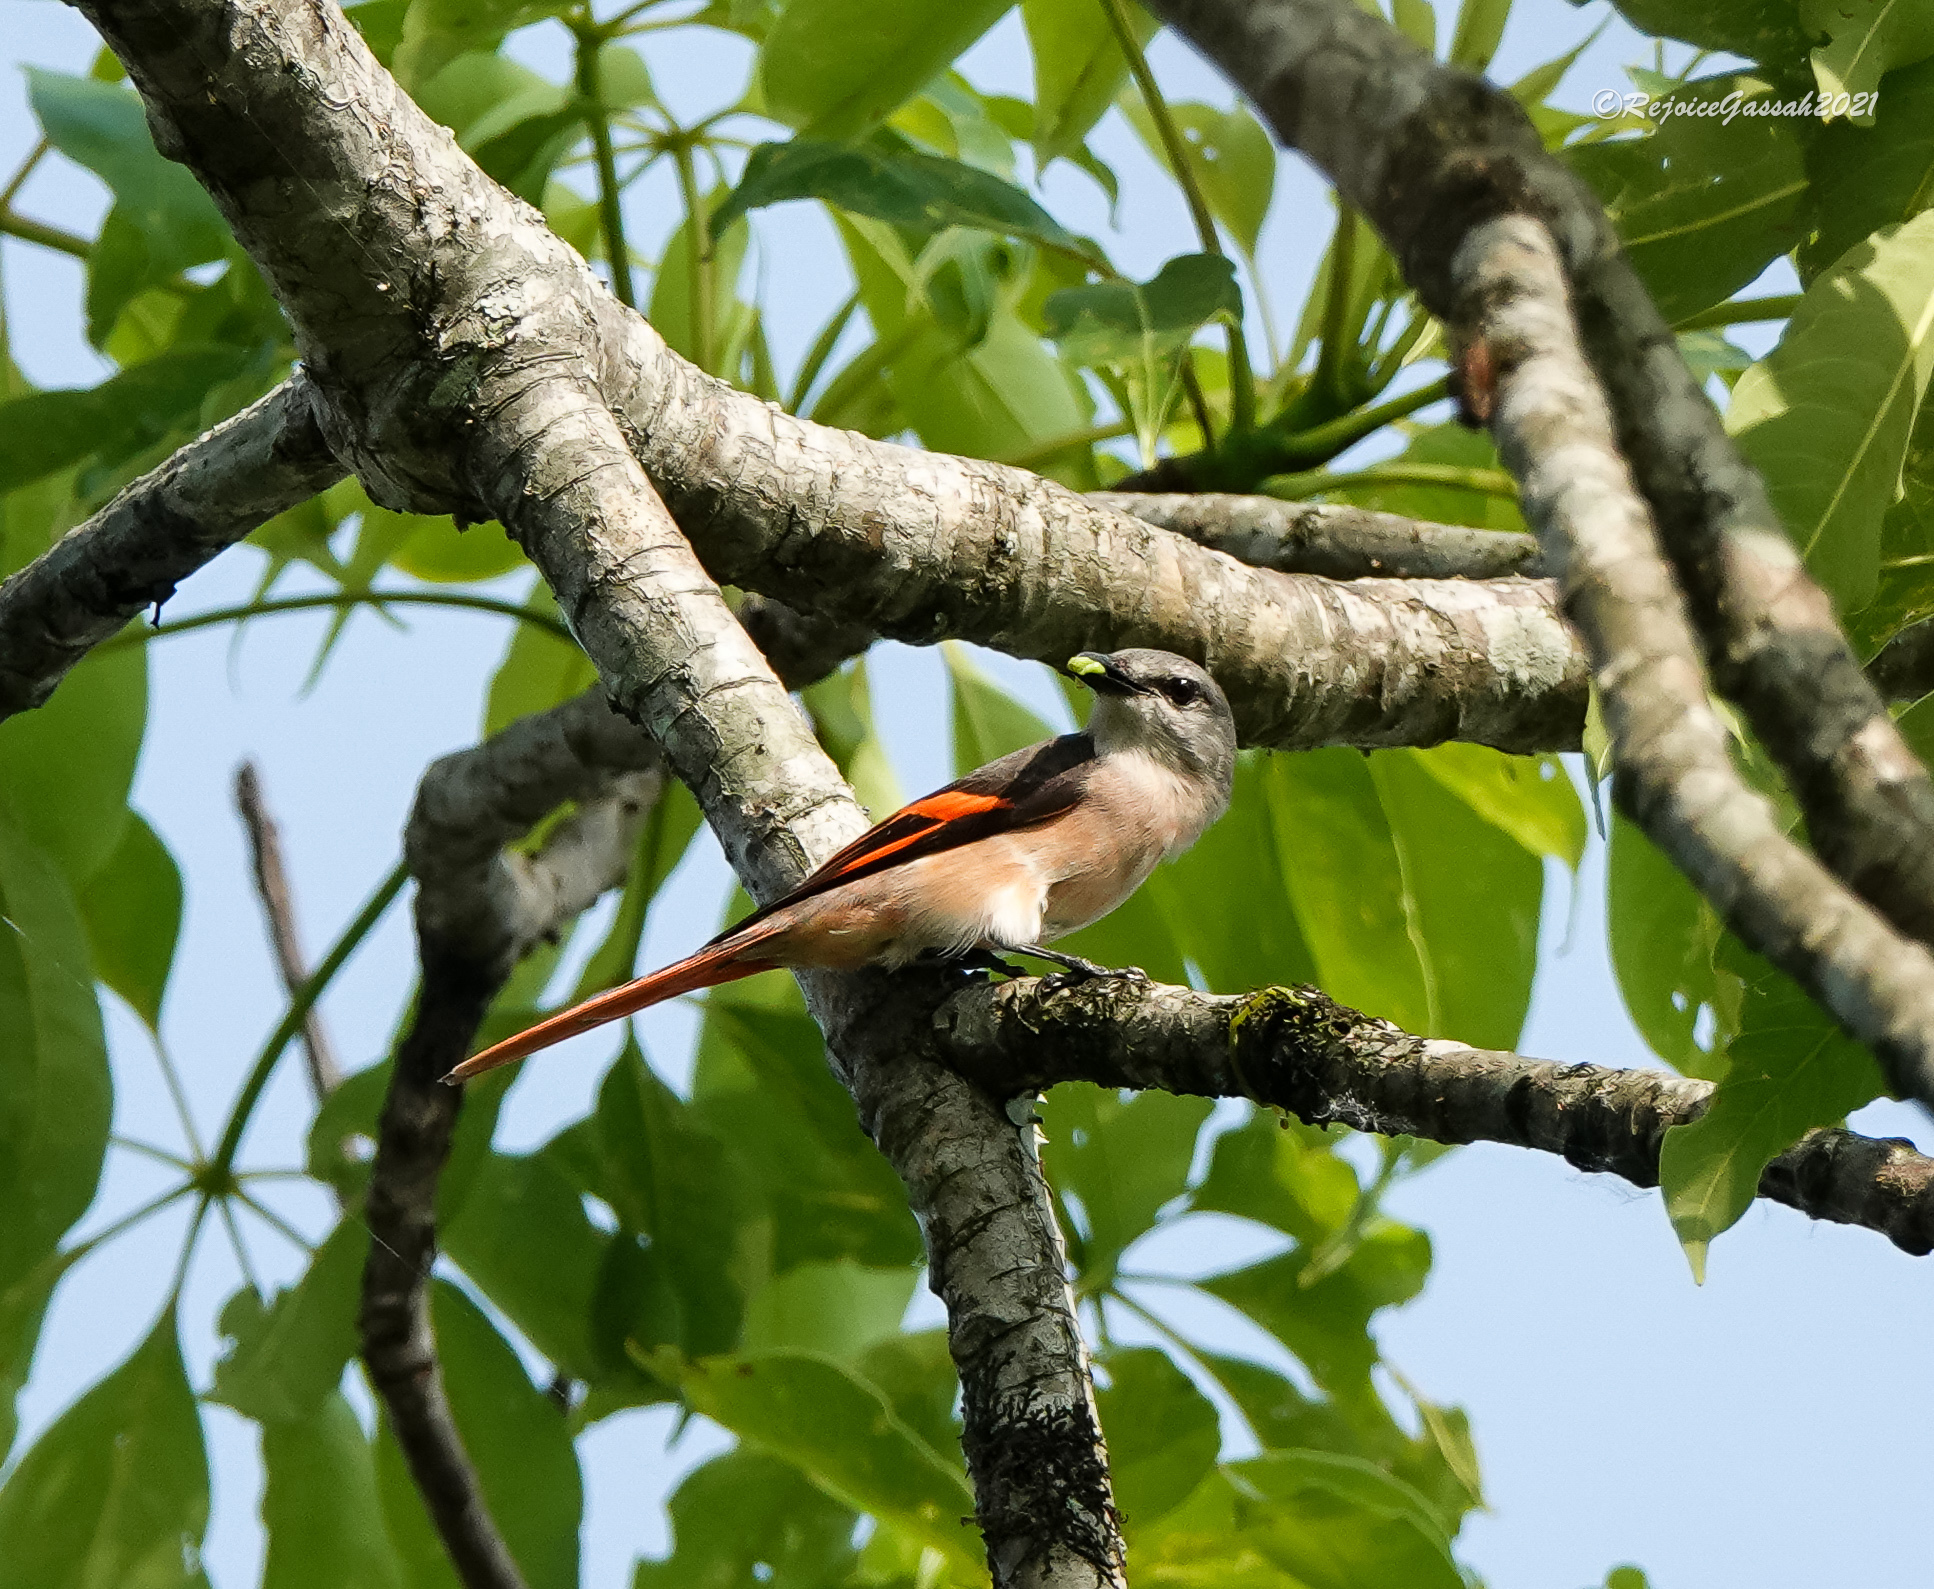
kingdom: Animalia
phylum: Chordata
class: Aves
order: Passeriformes
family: Campephagidae
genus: Pericrocotus
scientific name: Pericrocotus roseus
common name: Rosy minivet
